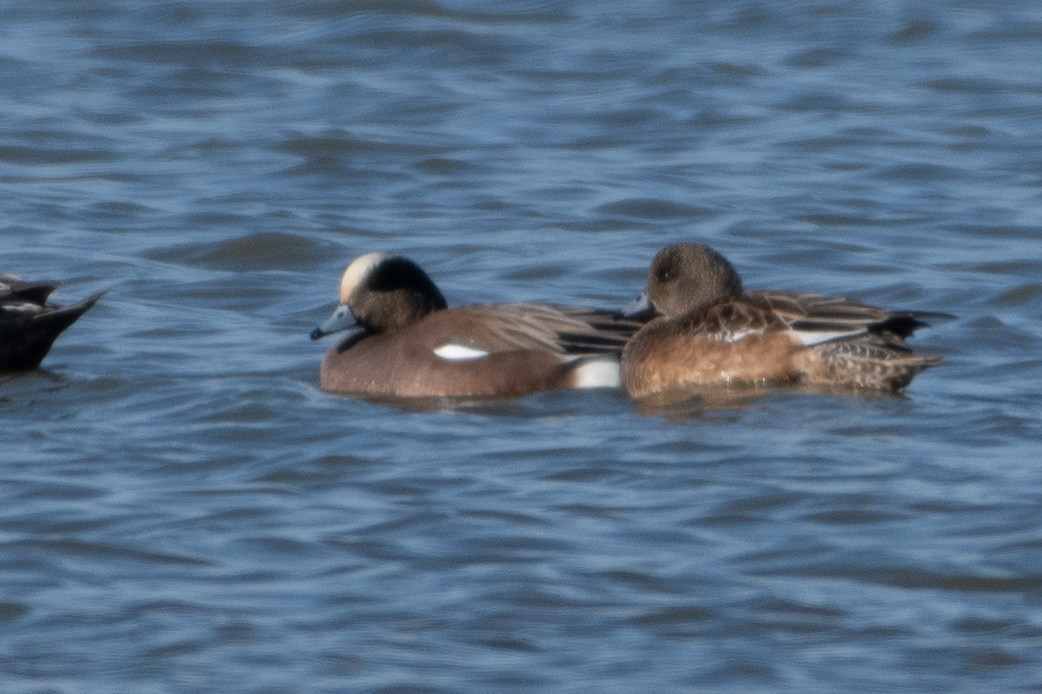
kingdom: Animalia
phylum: Chordata
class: Aves
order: Anseriformes
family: Anatidae
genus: Mareca
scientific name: Mareca americana
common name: American wigeon
